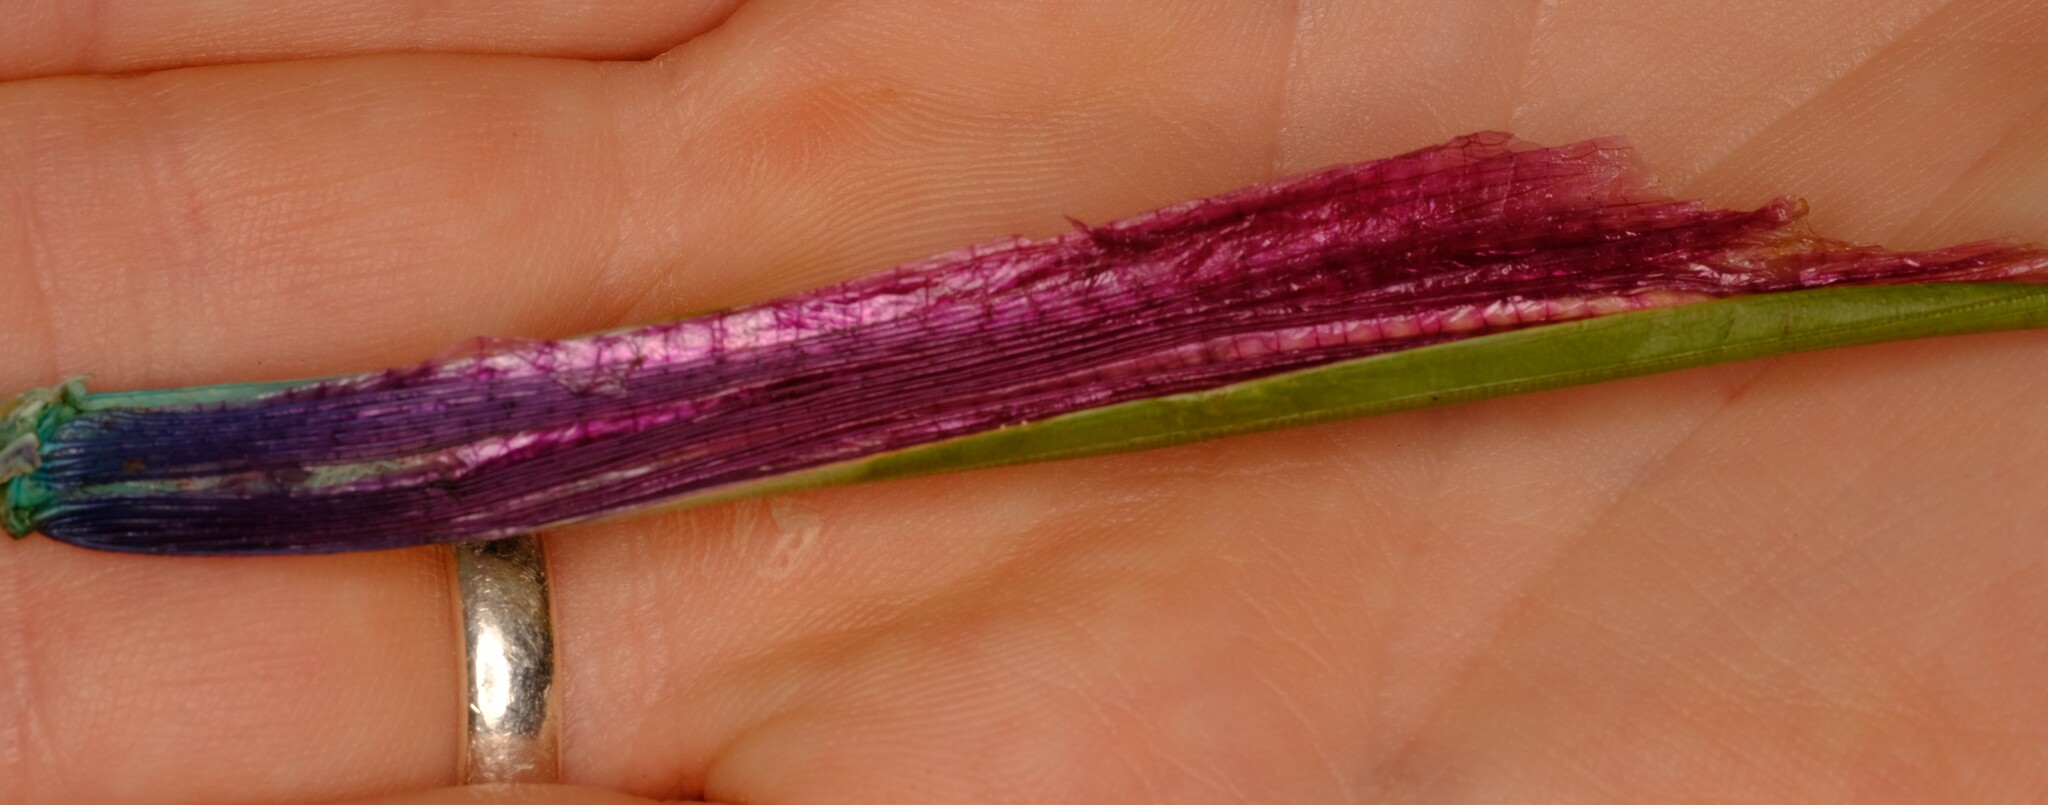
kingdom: Animalia
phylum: Arthropoda
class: Insecta
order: Phasmida
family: Phasmatidae
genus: Podacanthus
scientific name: Podacanthus viridiroseus
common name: Red-winged stick-insect
